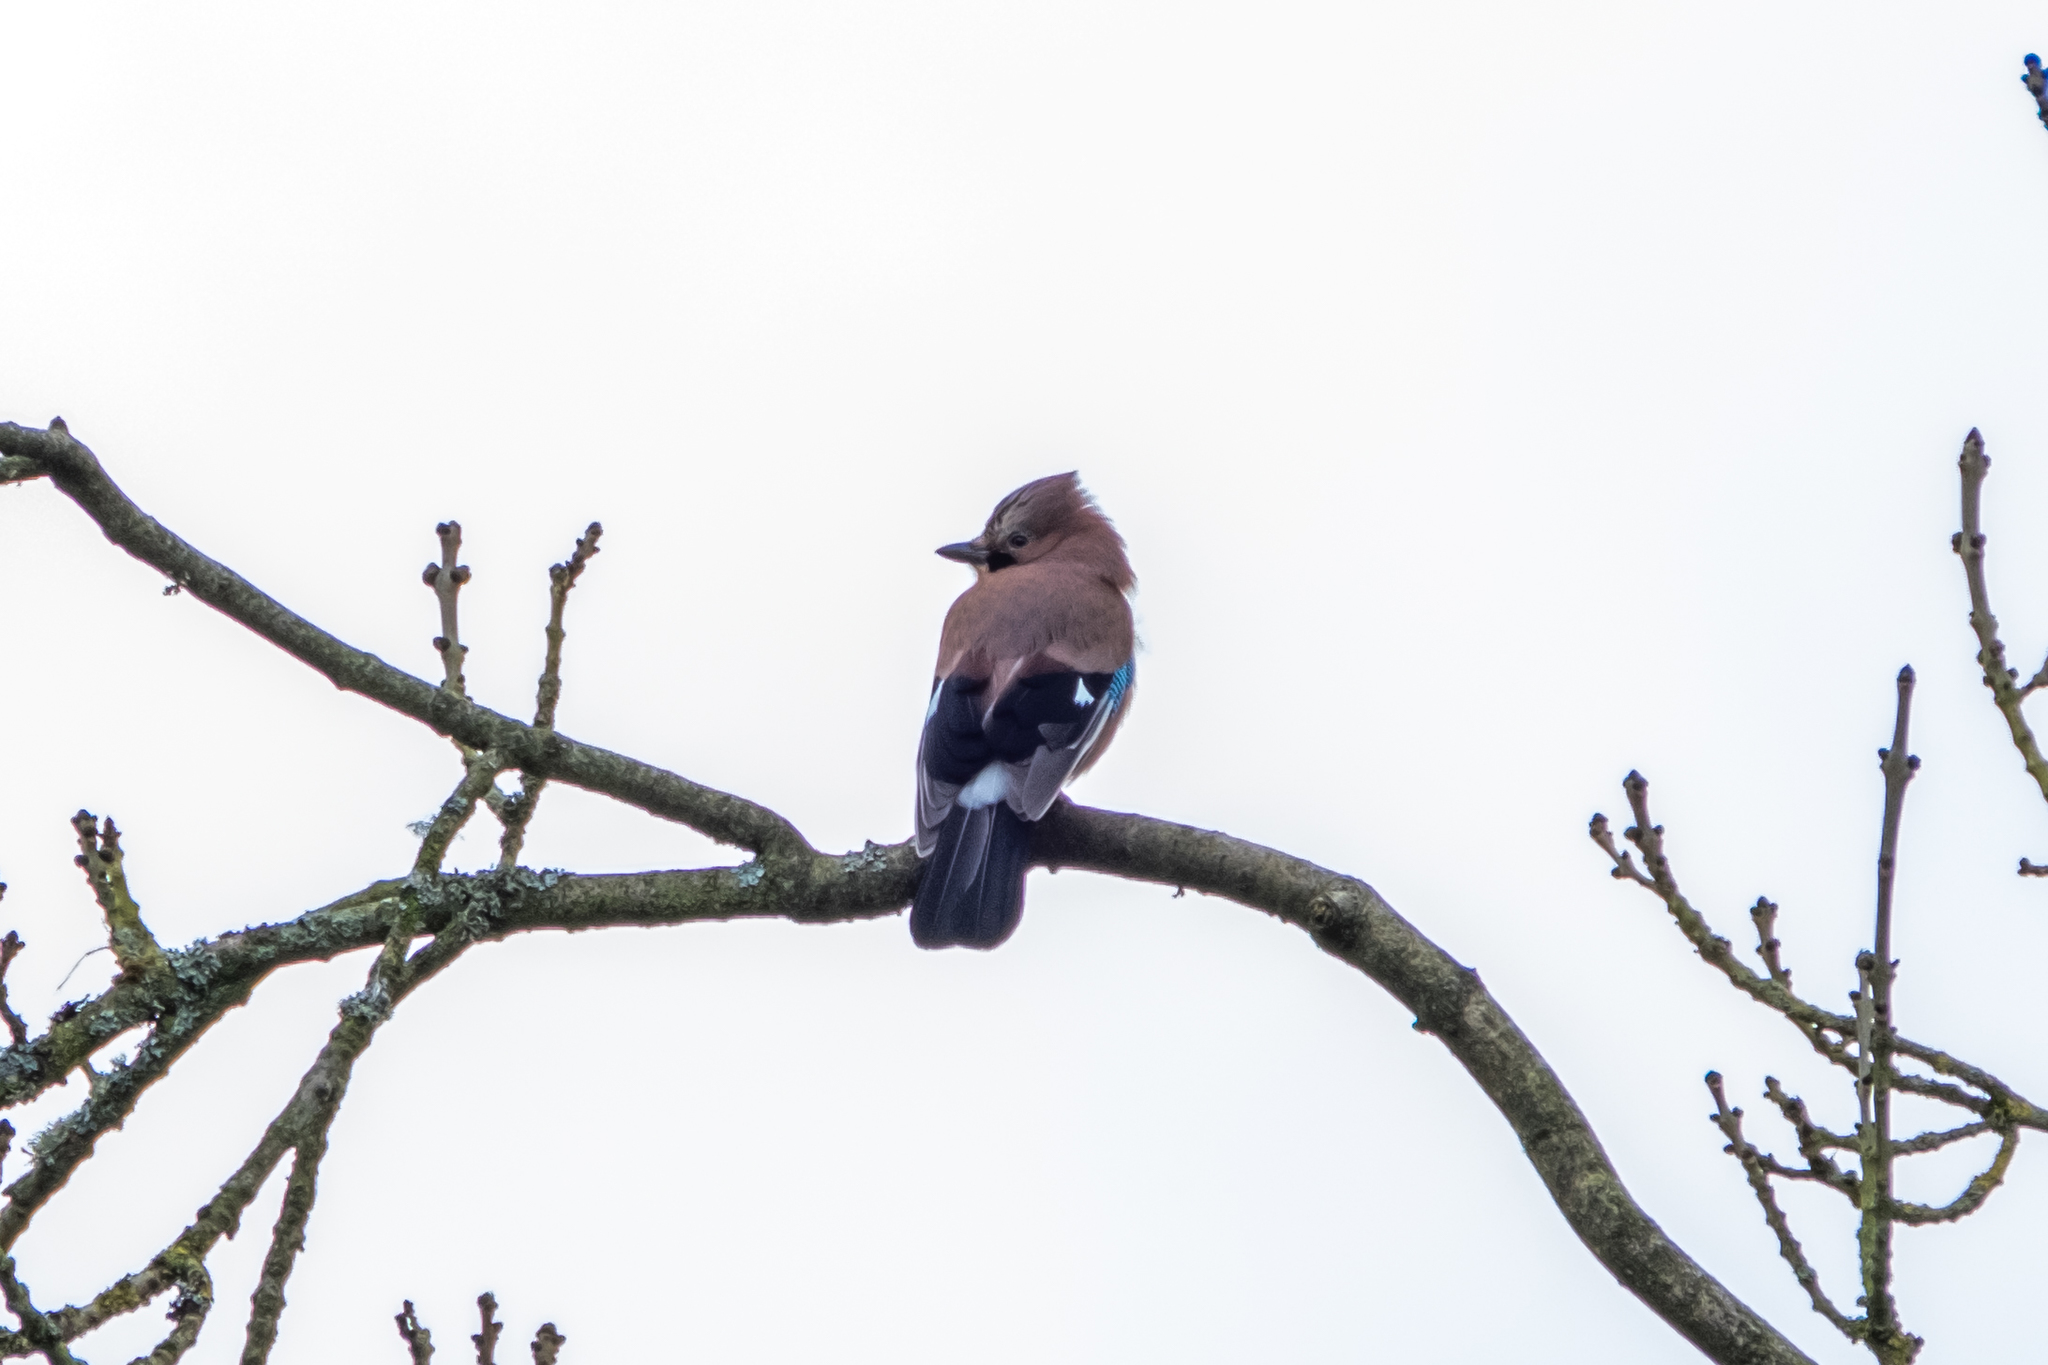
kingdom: Animalia
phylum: Chordata
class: Aves
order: Passeriformes
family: Corvidae
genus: Garrulus
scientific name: Garrulus glandarius
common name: Eurasian jay
